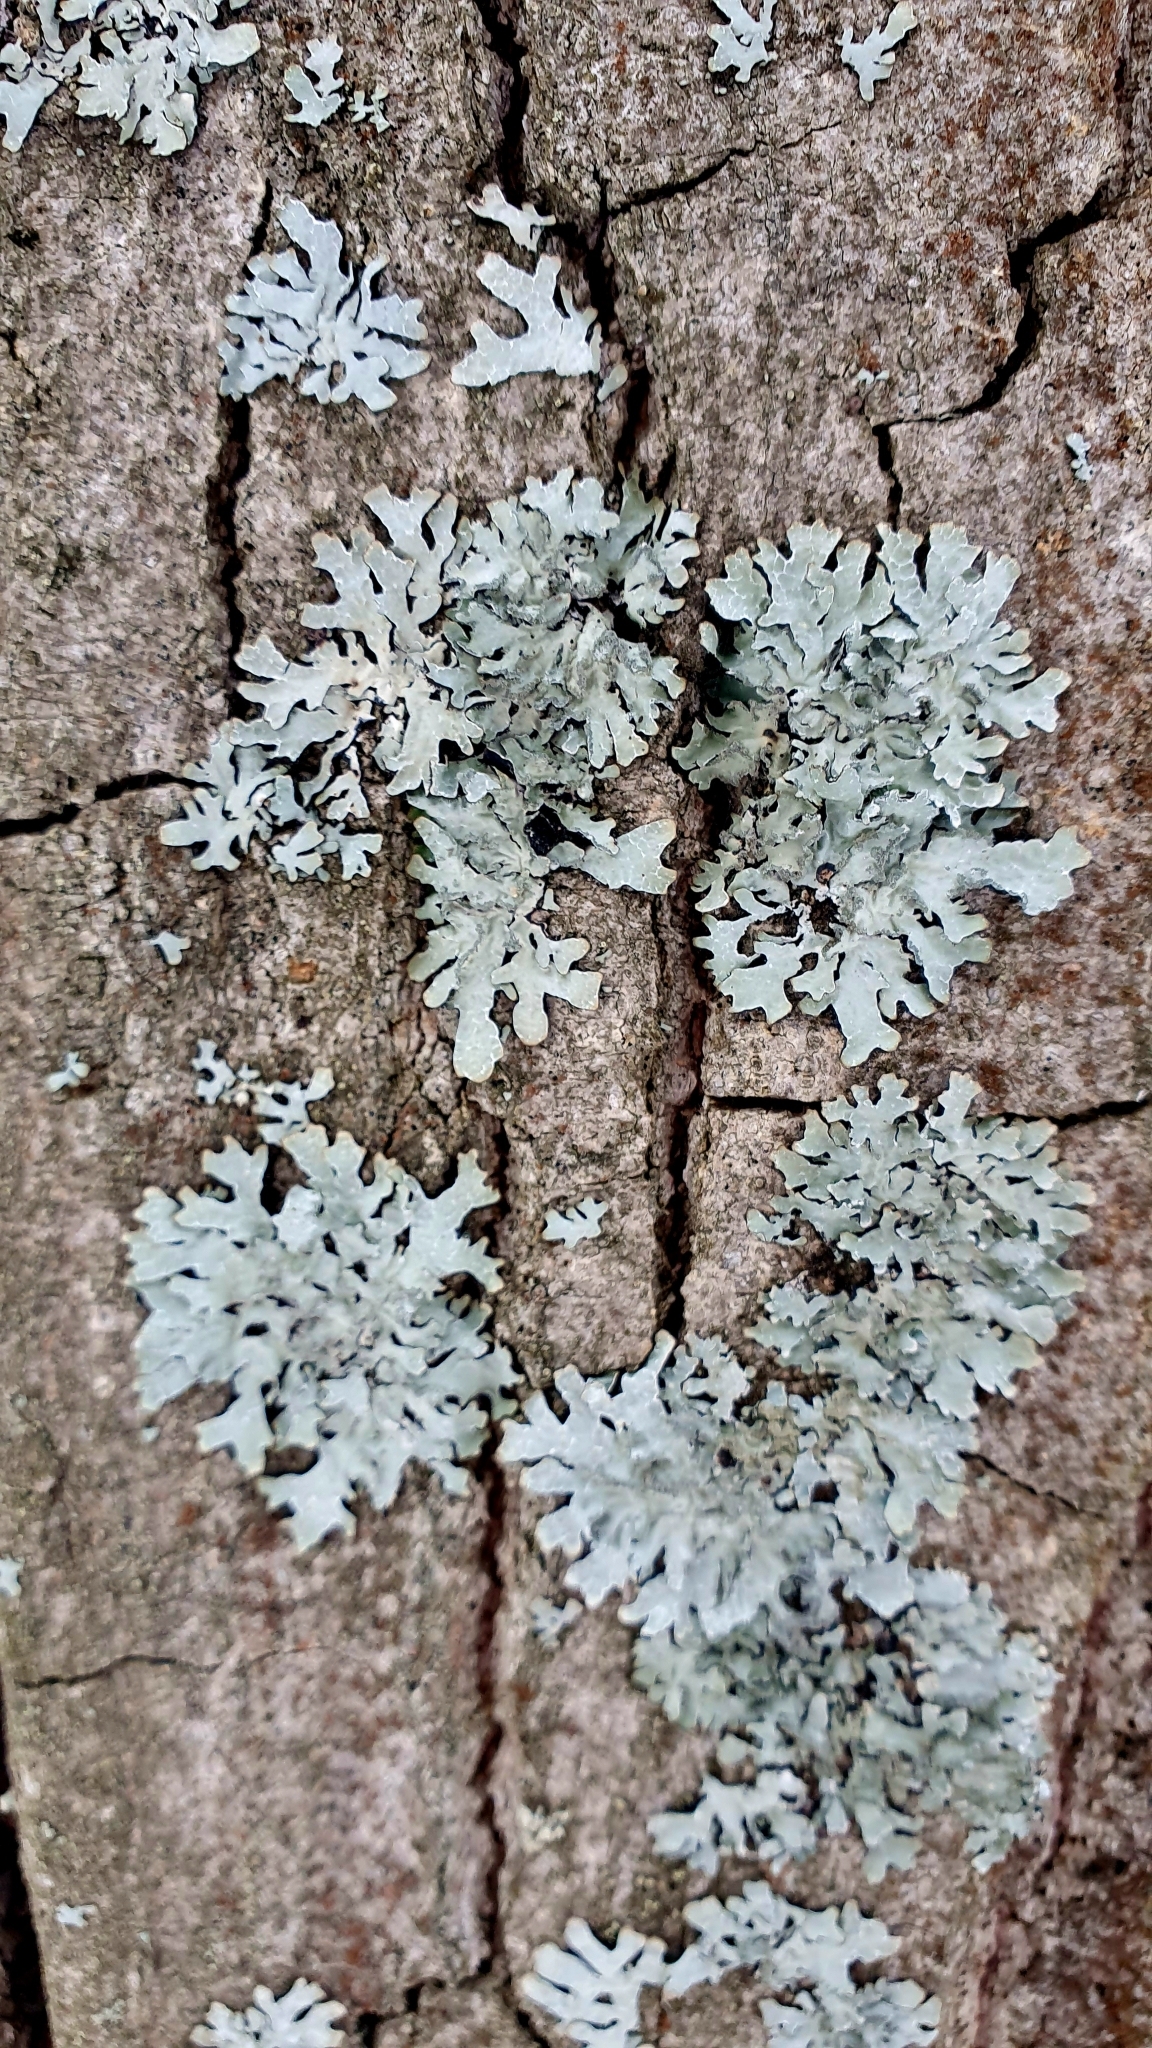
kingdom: Fungi
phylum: Ascomycota
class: Lecanoromycetes
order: Lecanorales
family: Parmeliaceae
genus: Parmelia
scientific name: Parmelia sulcata
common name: Netted shield lichen
